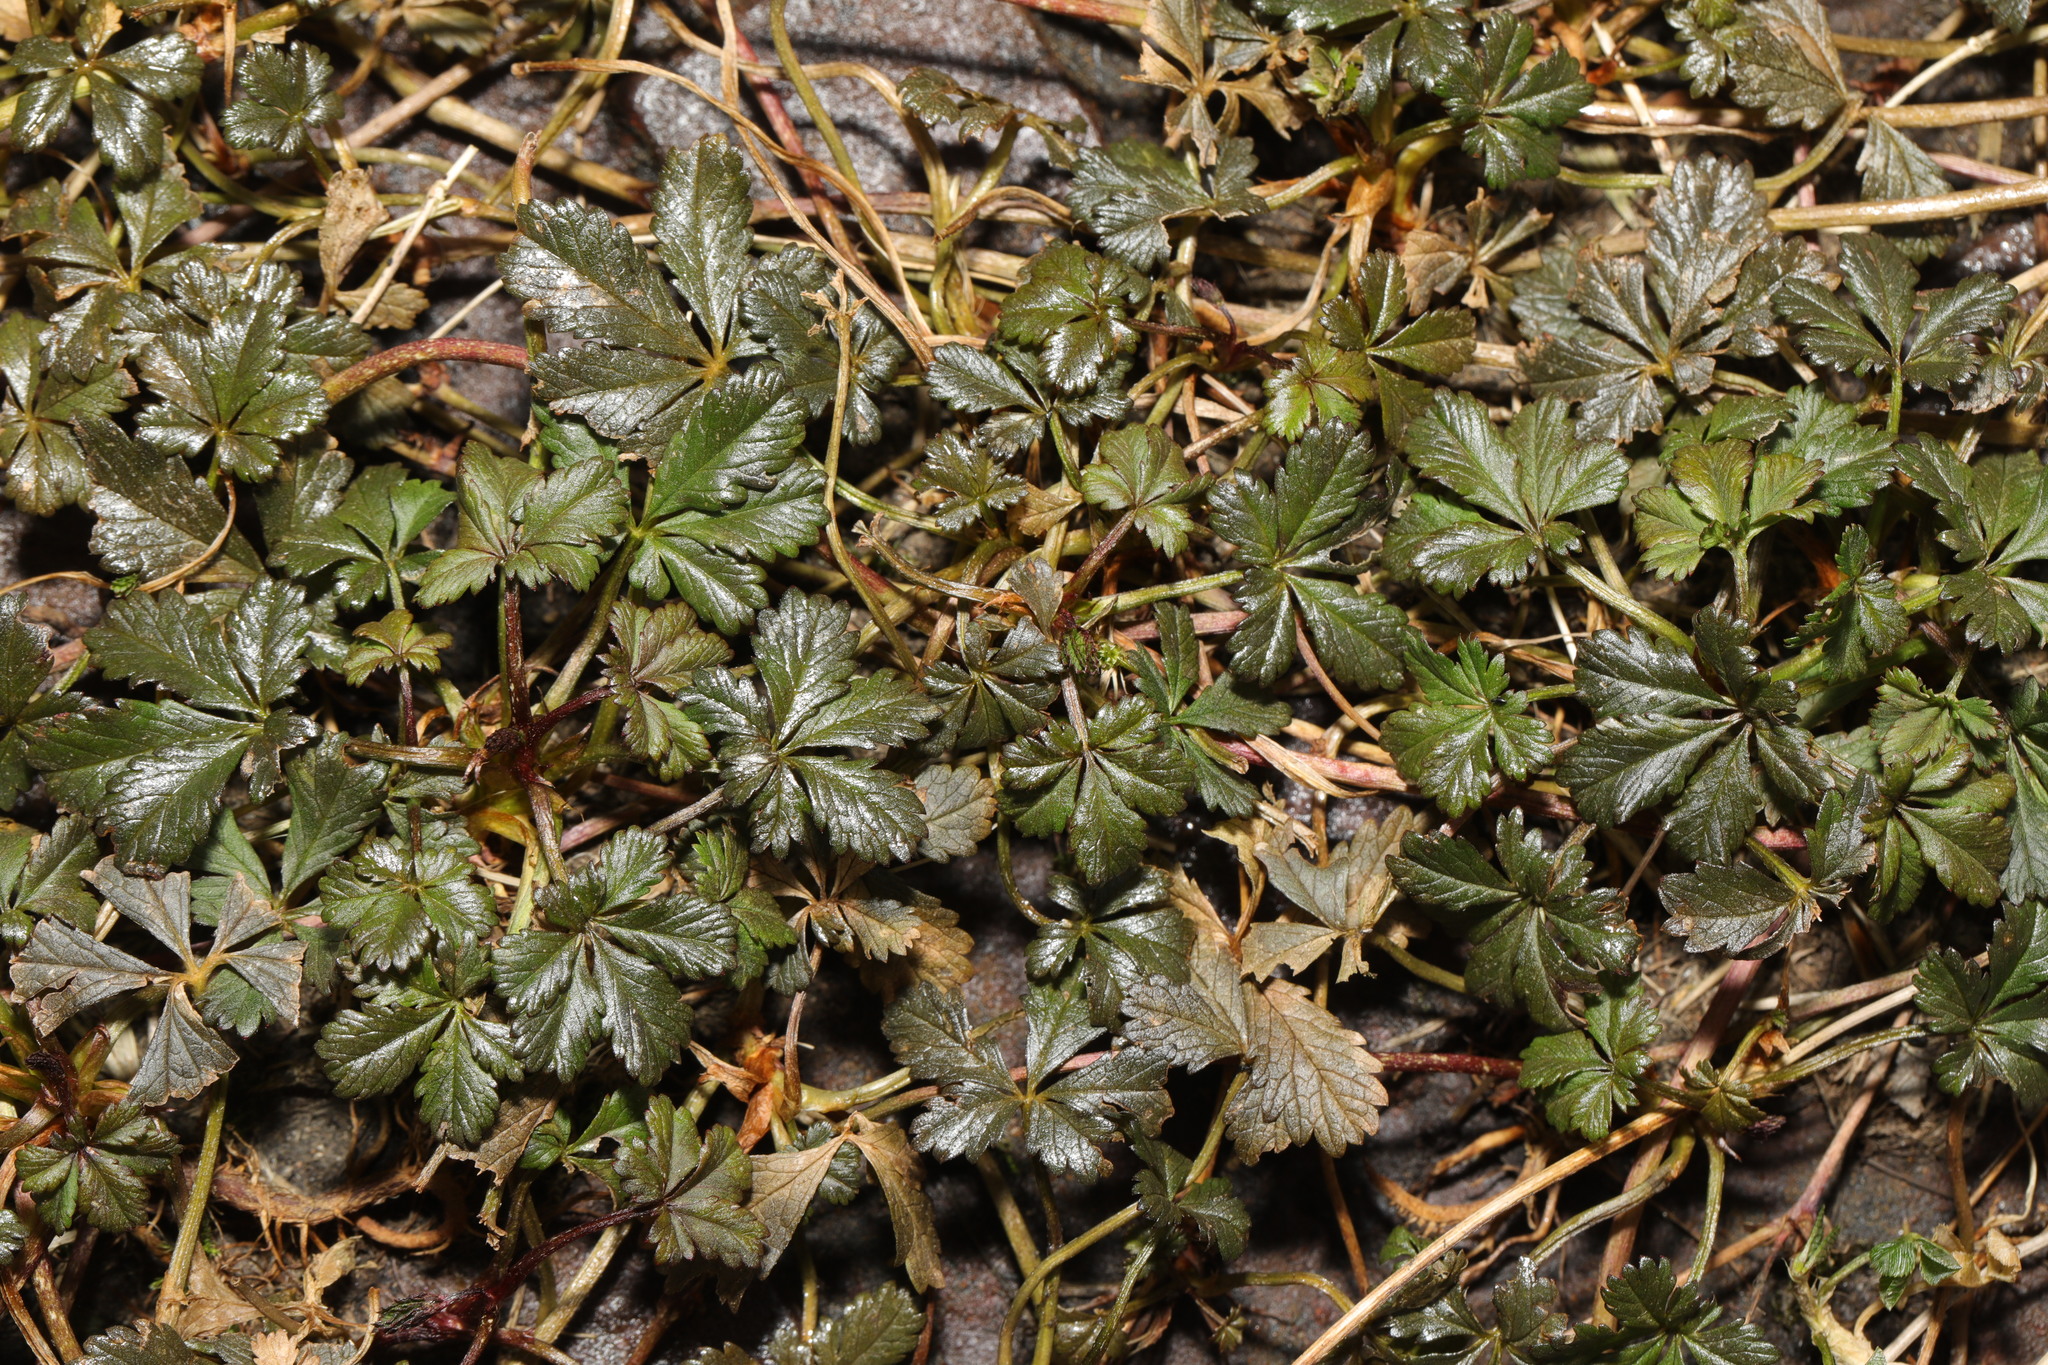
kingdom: Plantae
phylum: Tracheophyta
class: Magnoliopsida
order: Rosales
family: Rosaceae
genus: Potentilla
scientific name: Potentilla reptans
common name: Creeping cinquefoil
